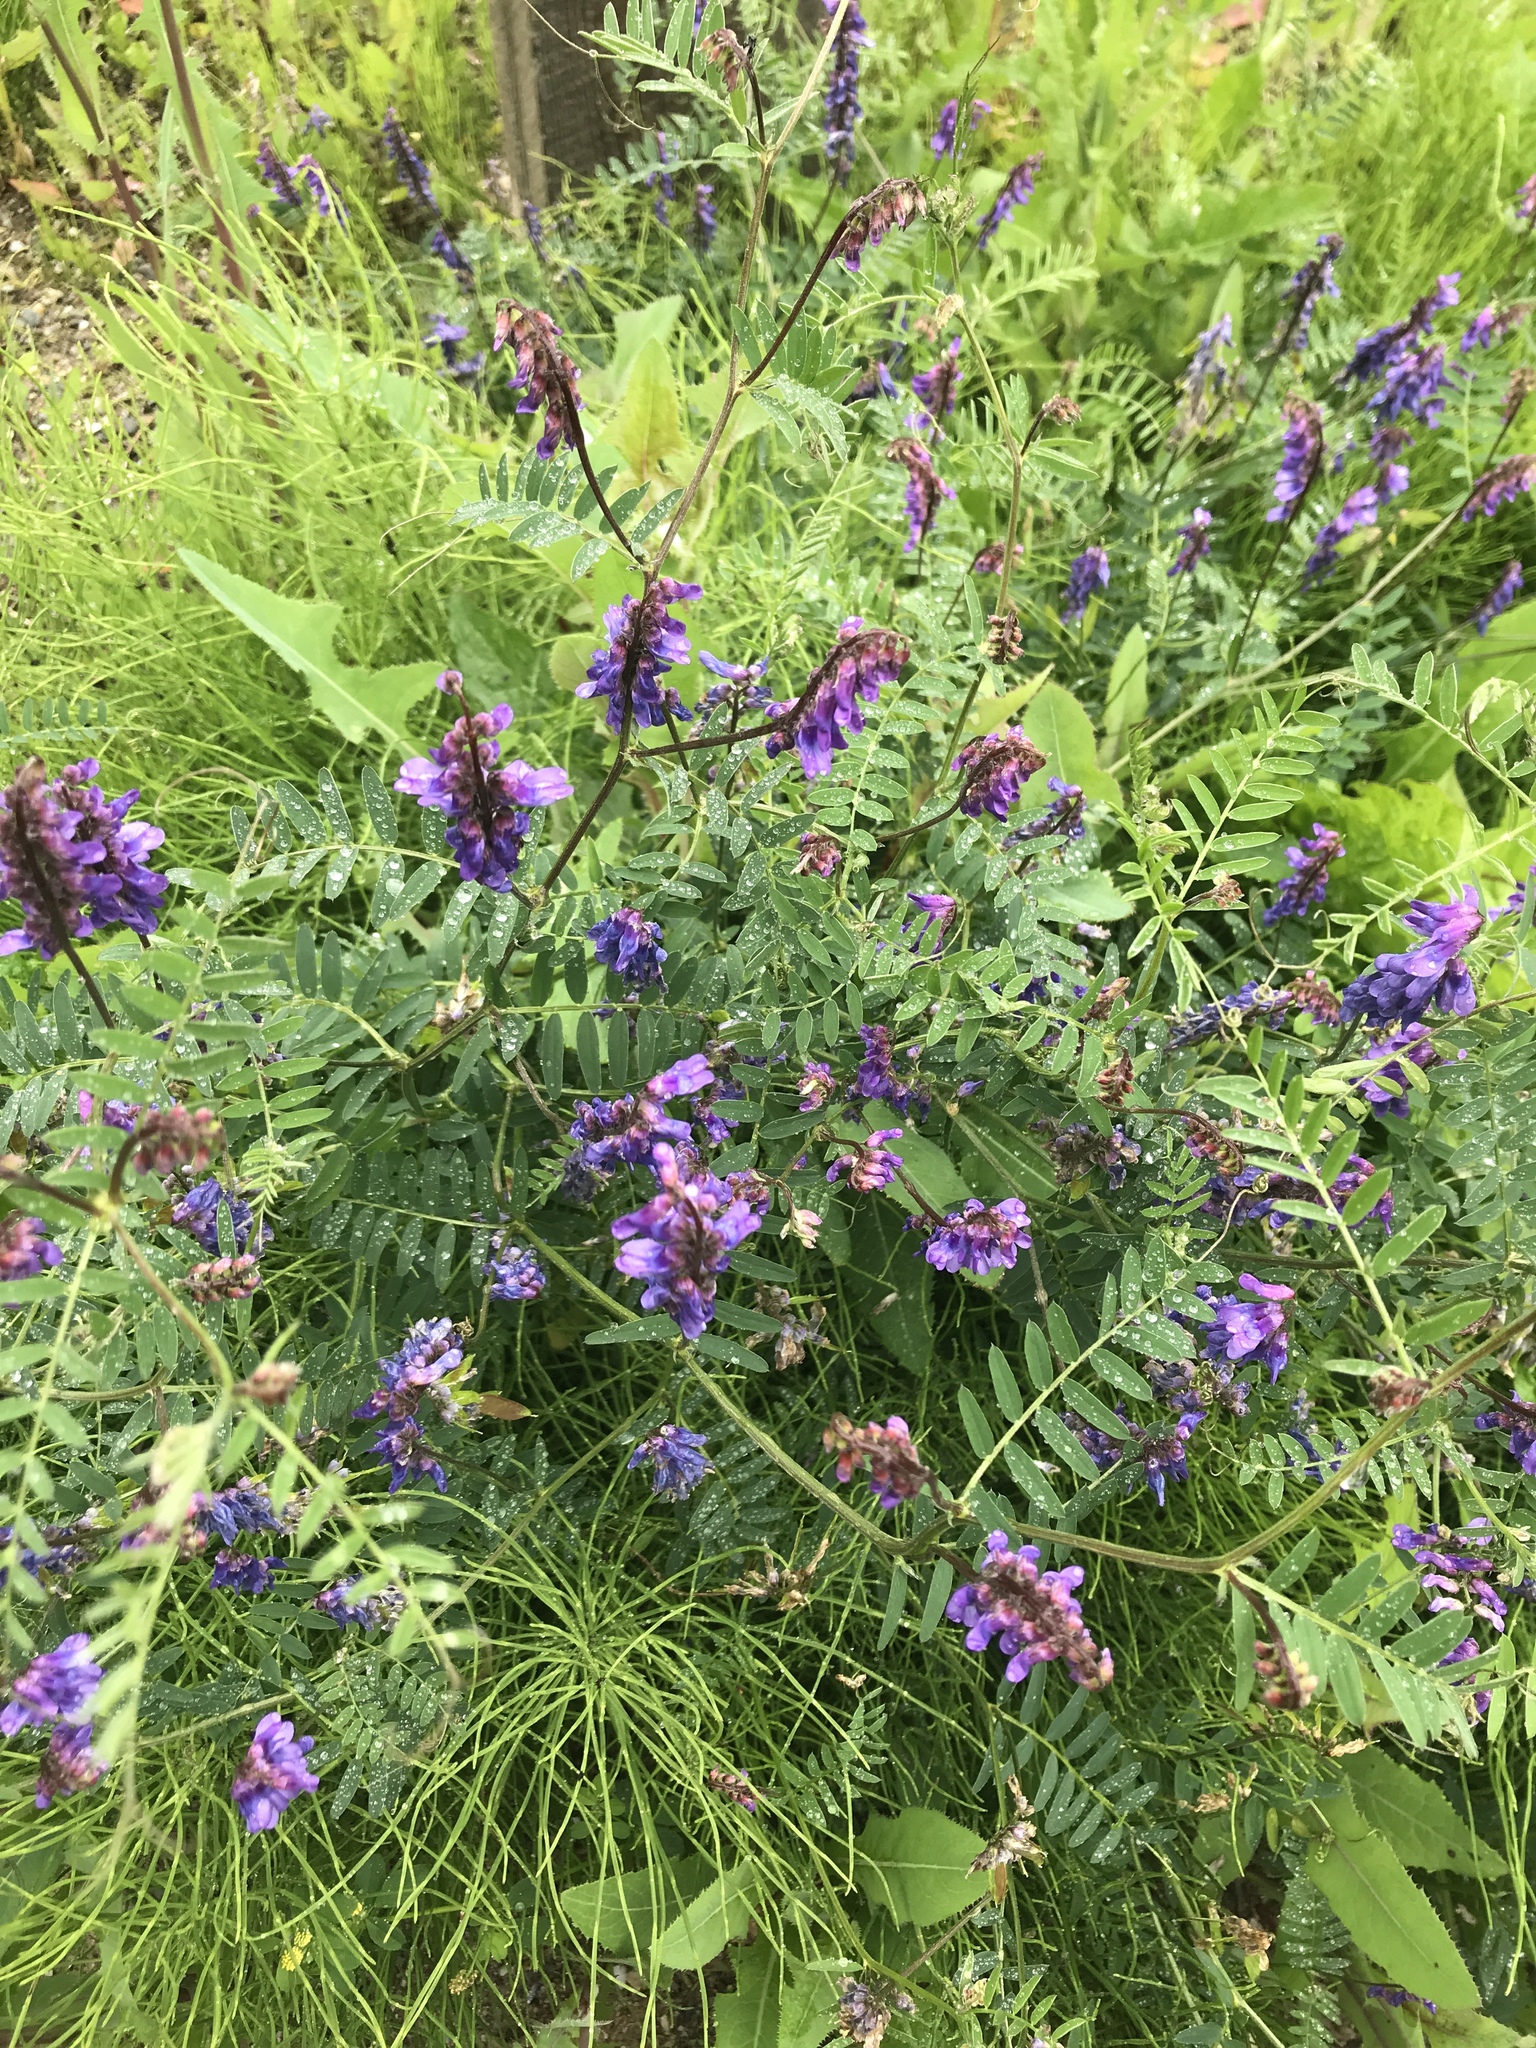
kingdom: Plantae
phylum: Tracheophyta
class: Magnoliopsida
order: Fabales
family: Fabaceae
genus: Vicia
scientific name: Vicia cracca
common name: Bird vetch
